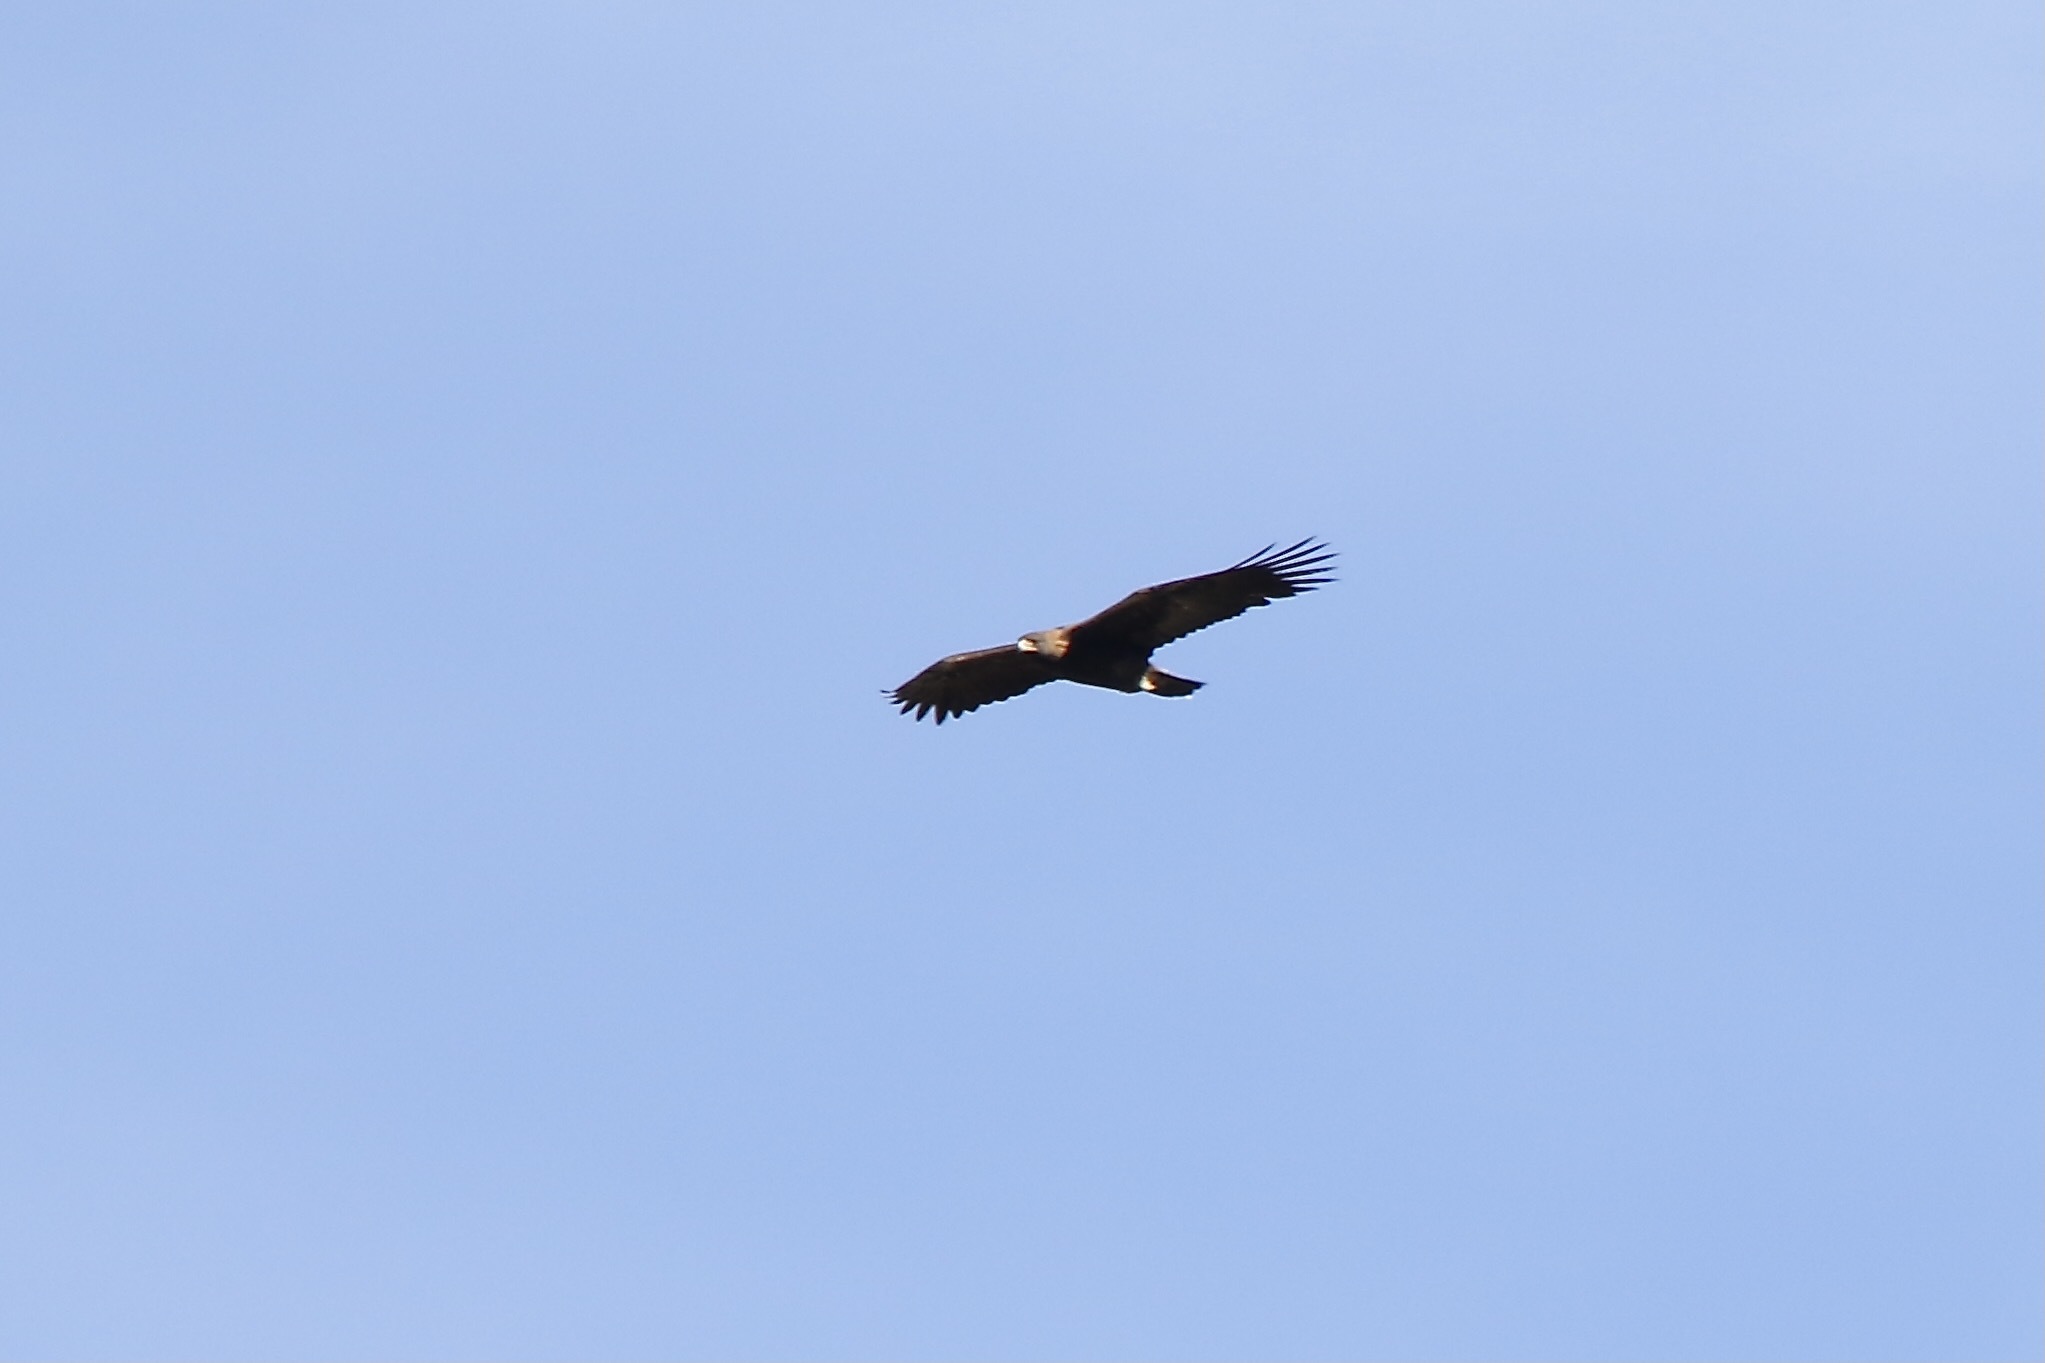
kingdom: Animalia
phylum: Chordata
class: Aves
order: Accipitriformes
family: Accipitridae
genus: Aquila
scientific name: Aquila chrysaetos
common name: Golden eagle
